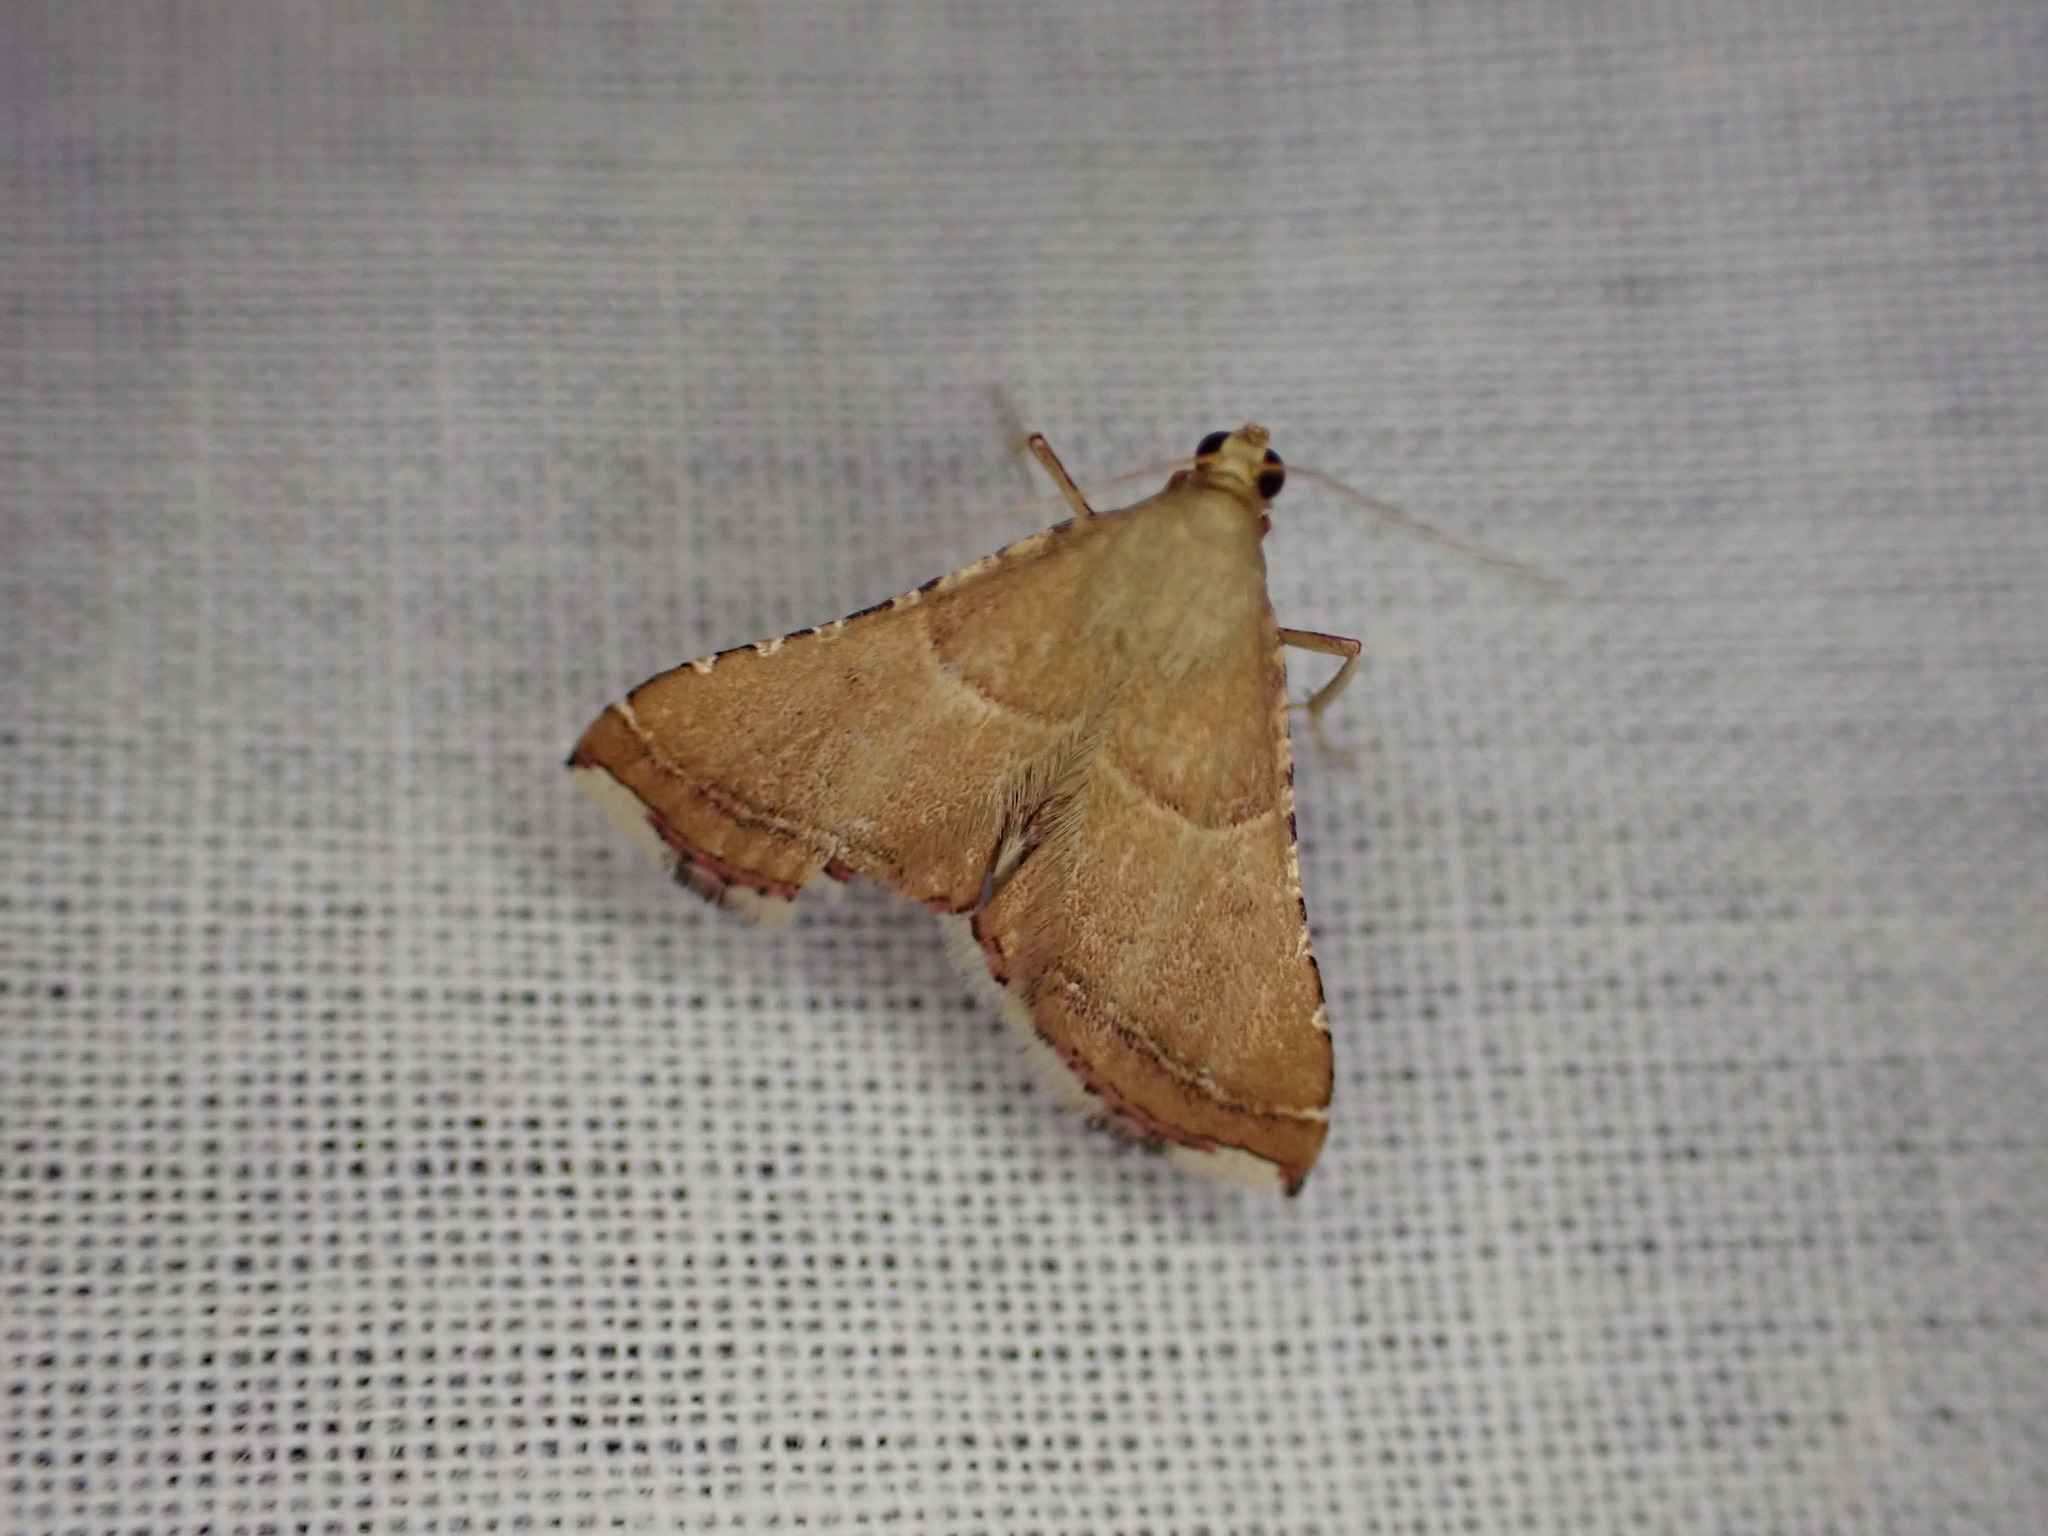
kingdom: Animalia
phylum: Arthropoda
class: Insecta
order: Lepidoptera
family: Pyralidae
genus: Endotricha
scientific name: Endotricha flammealis
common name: Rosy tabby
